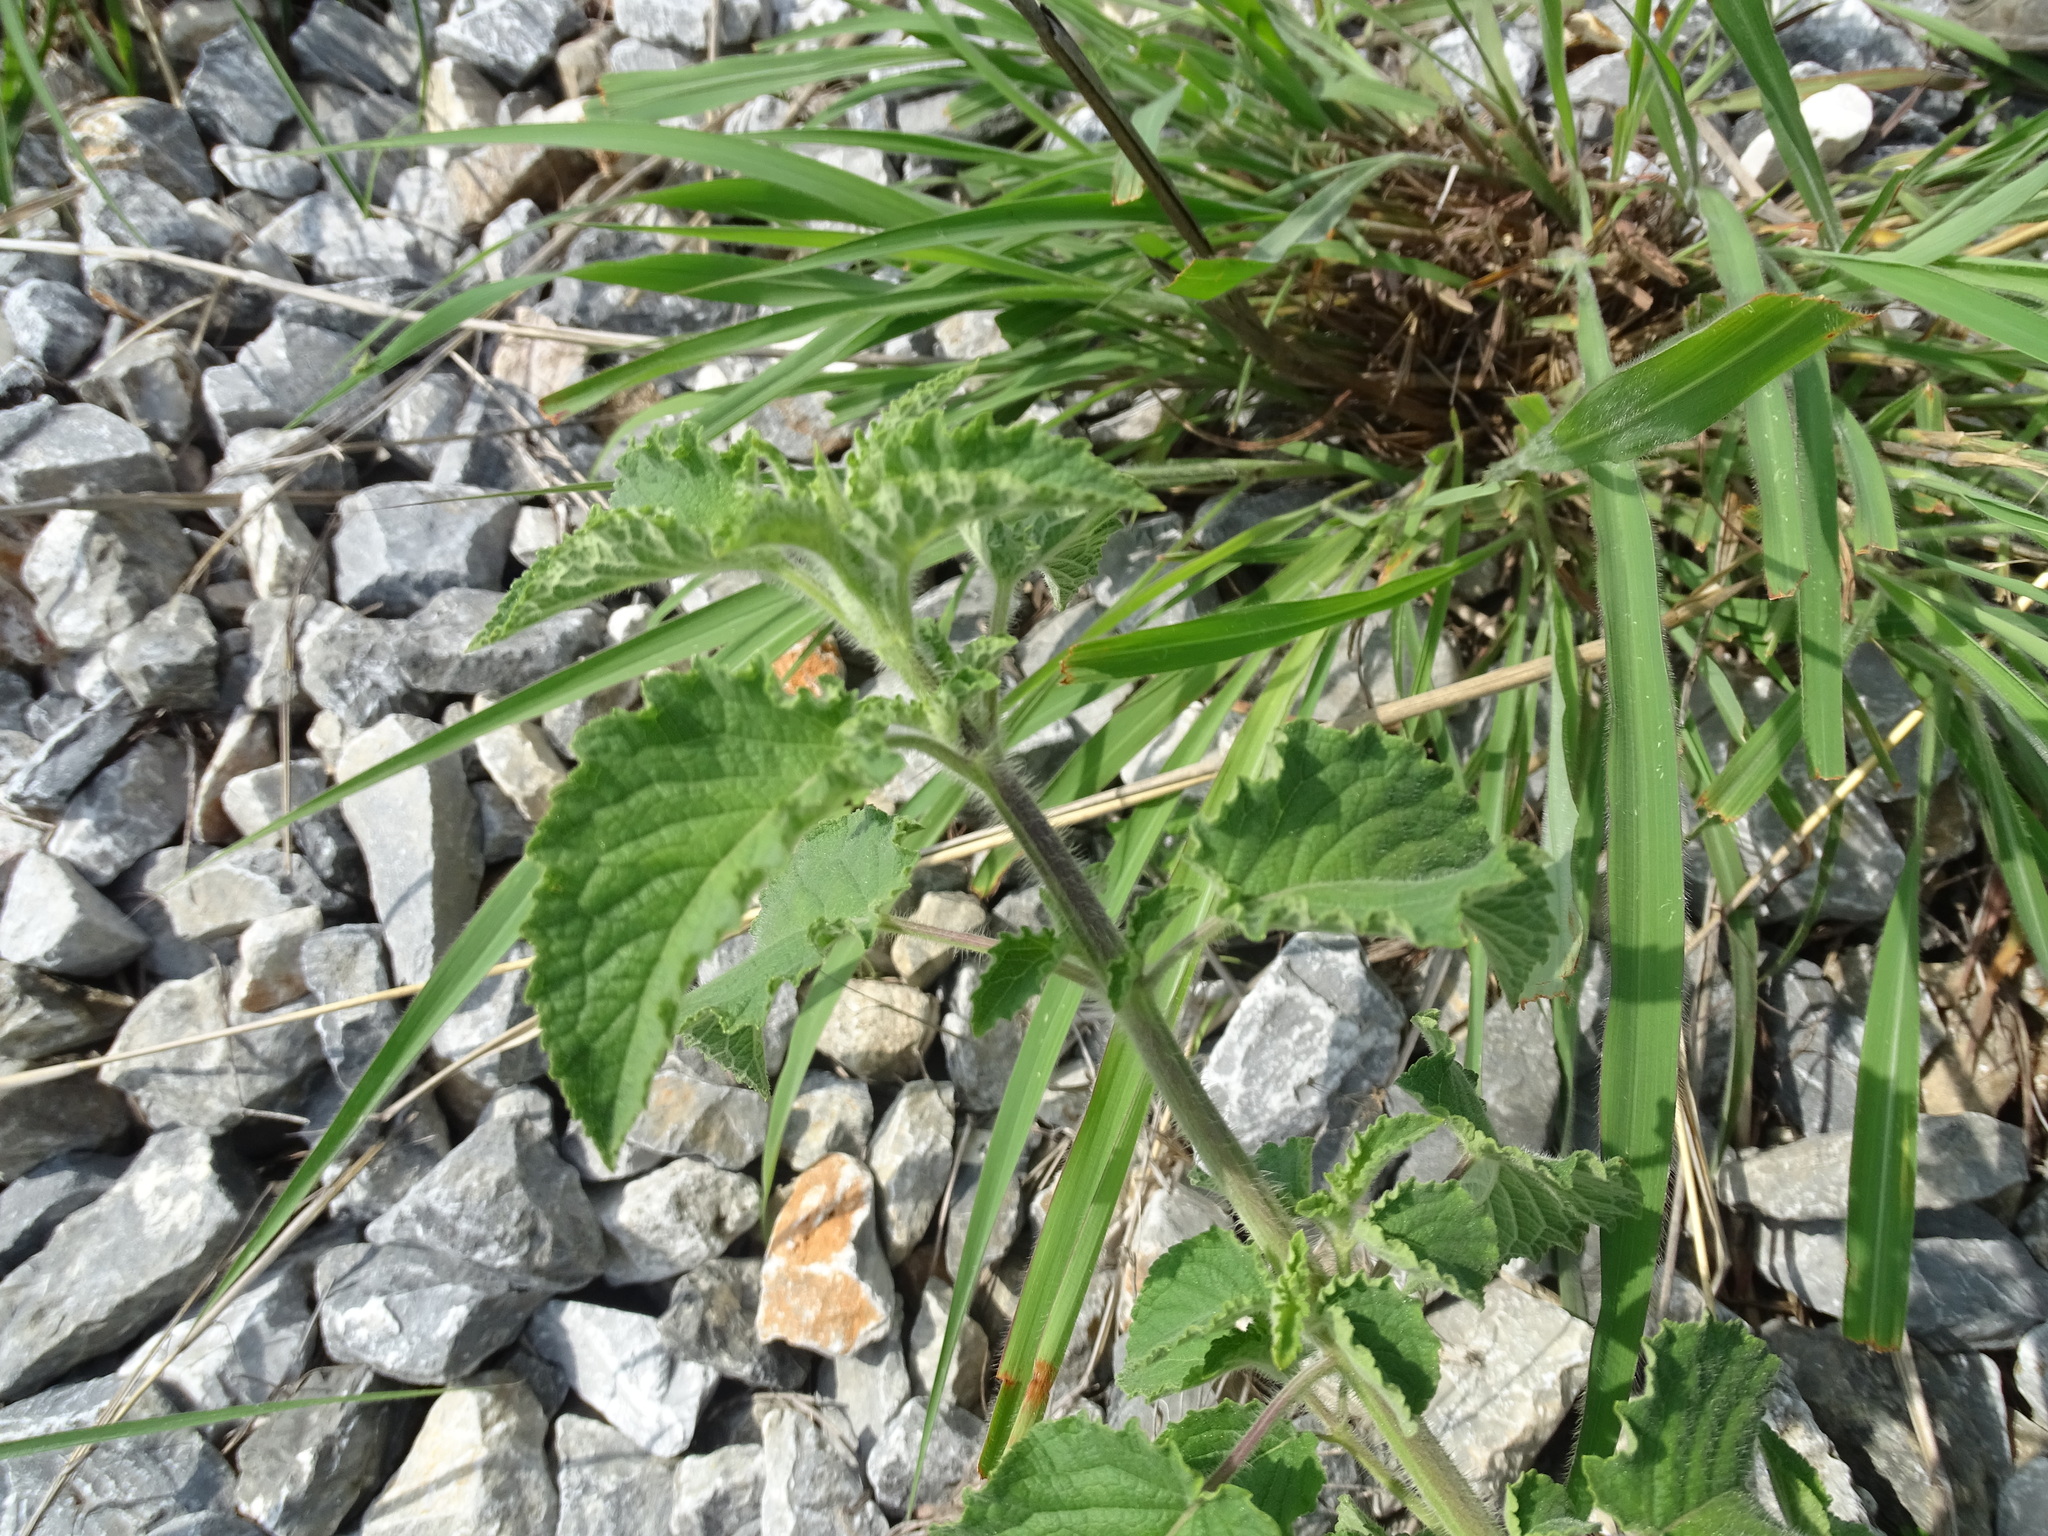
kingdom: Plantae
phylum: Tracheophyta
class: Magnoliopsida
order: Lamiales
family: Lamiaceae
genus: Mesosphaerum
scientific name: Mesosphaerum suaveolens
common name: Pignut
